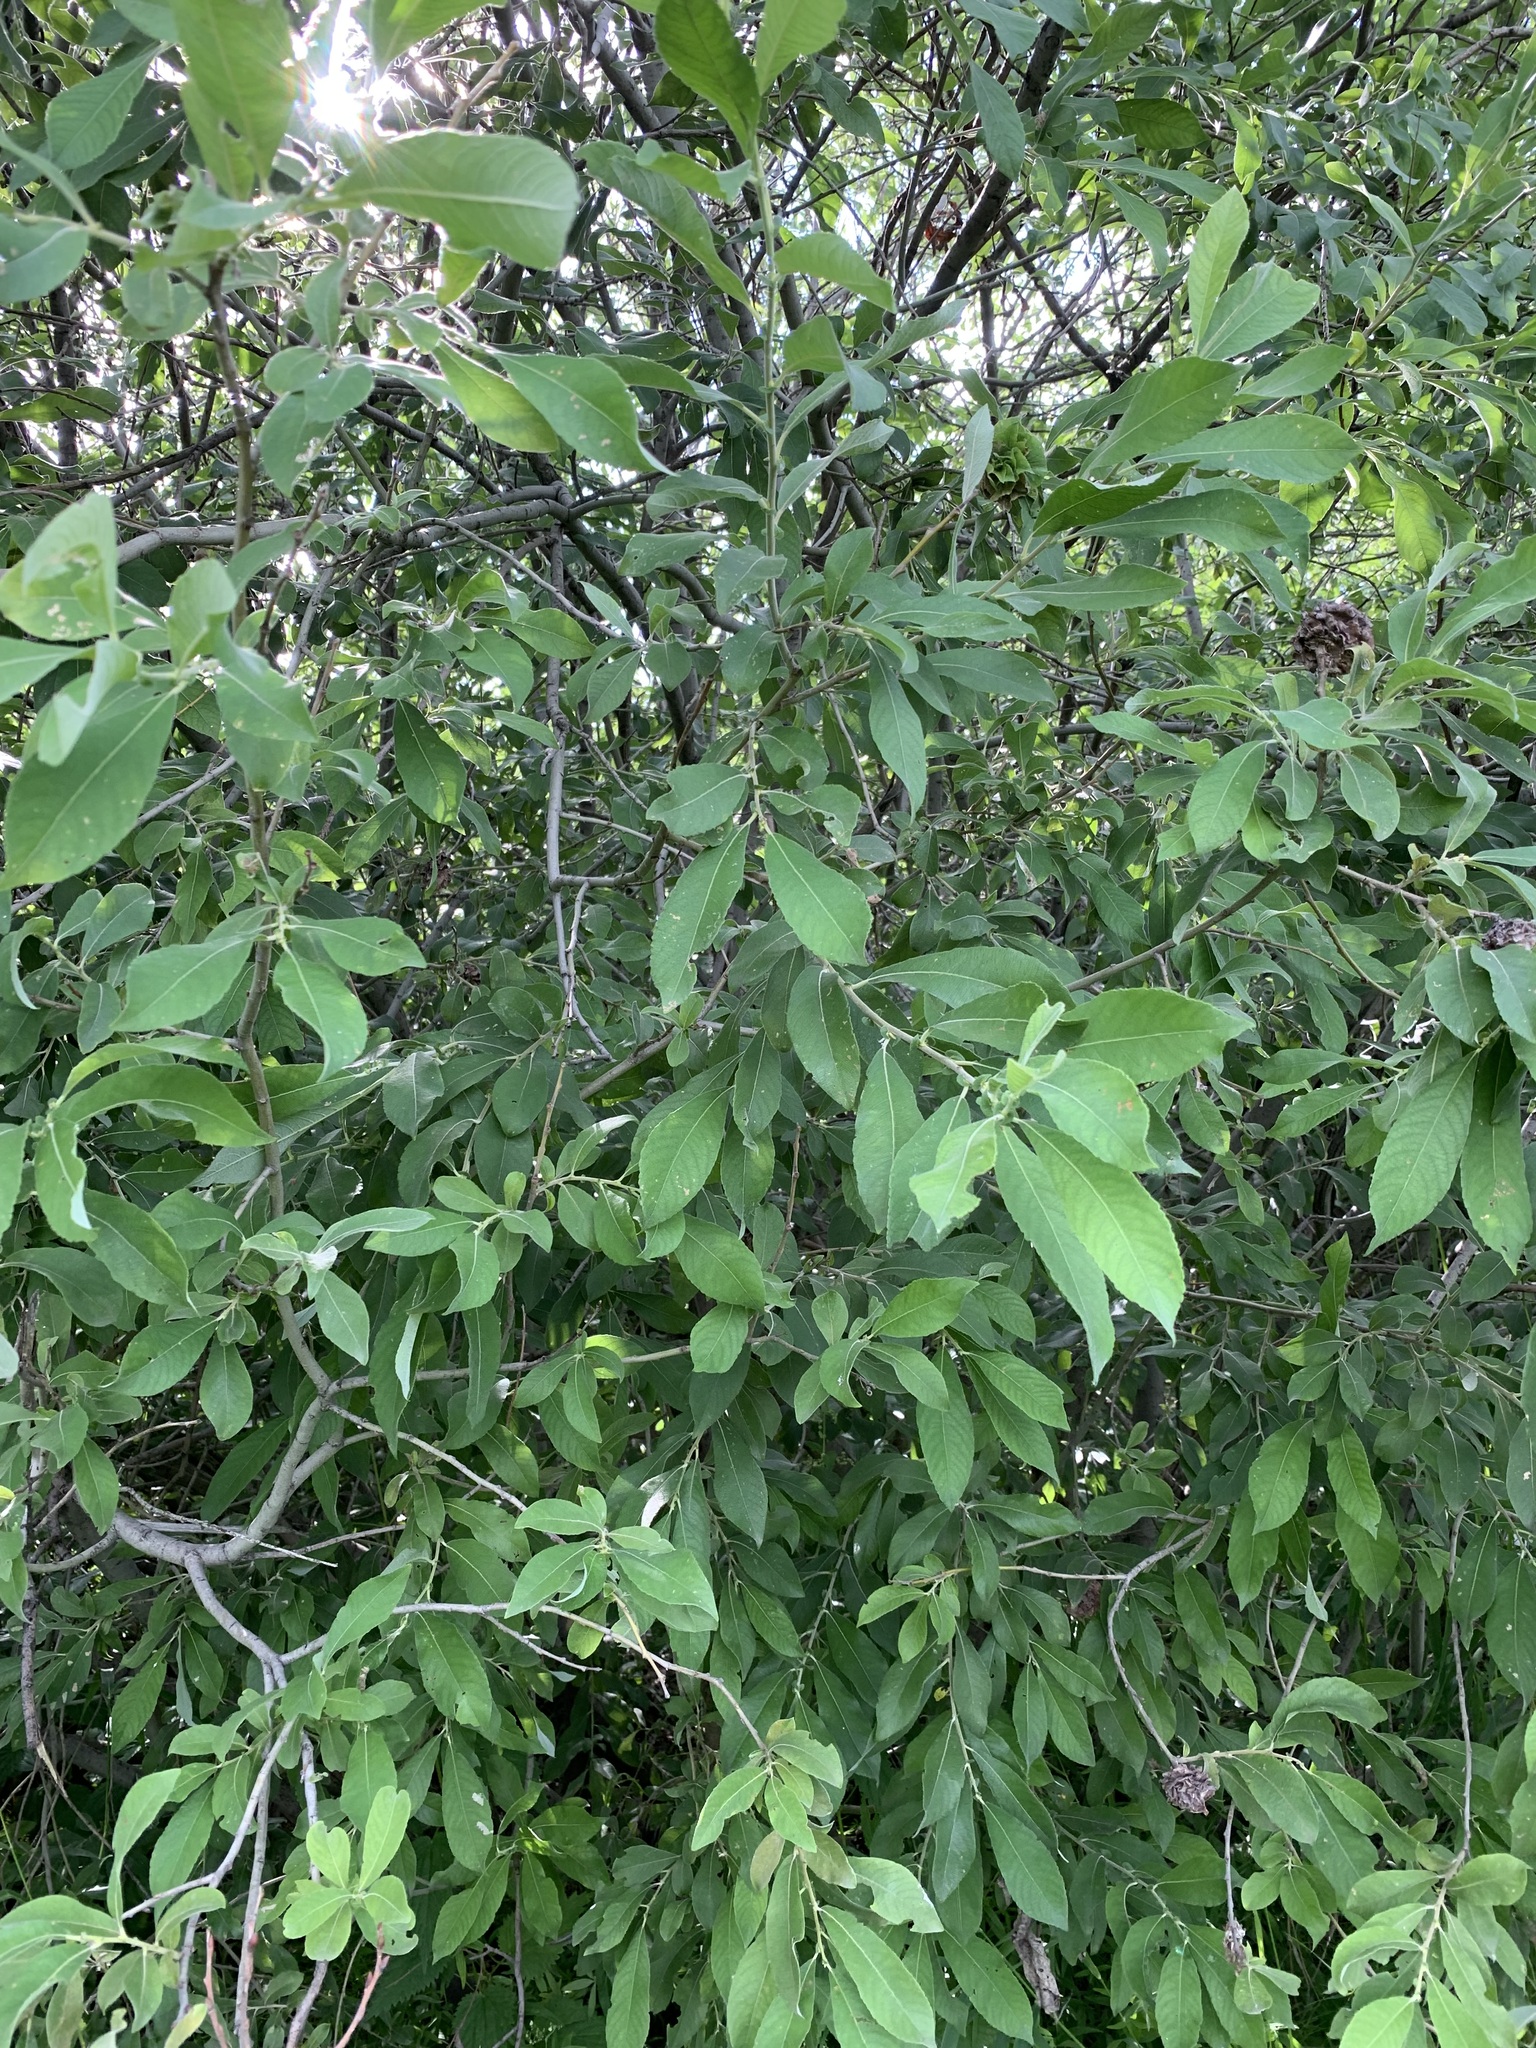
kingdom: Plantae
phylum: Tracheophyta
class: Magnoliopsida
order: Malpighiales
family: Salicaceae
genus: Salix
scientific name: Salix cinerea
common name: Common sallow
